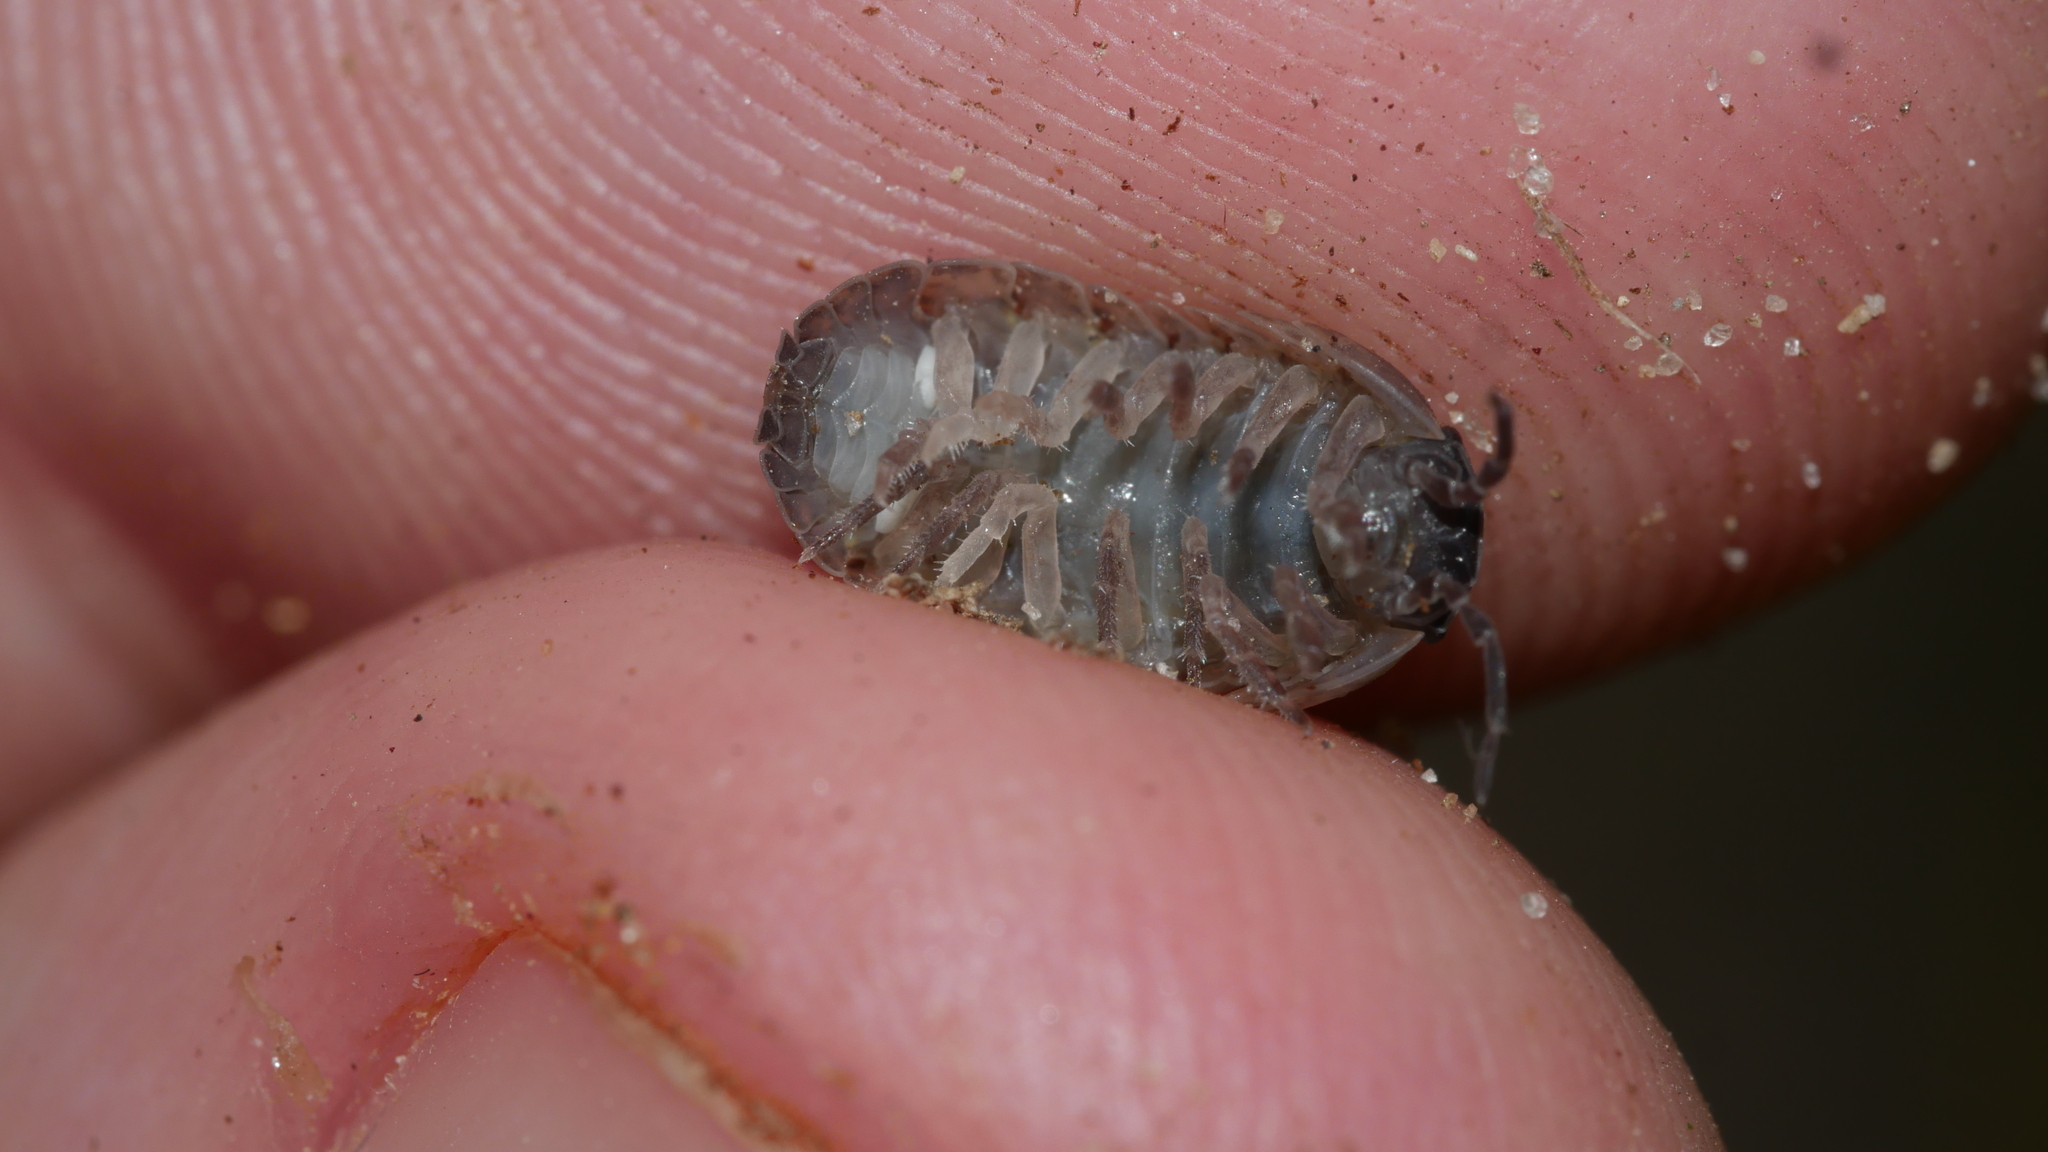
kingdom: Animalia
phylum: Arthropoda
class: Malacostraca
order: Isopoda
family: Armadillidiidae
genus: Armadillidium
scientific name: Armadillidium vulgare
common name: Common pill woodlouse
